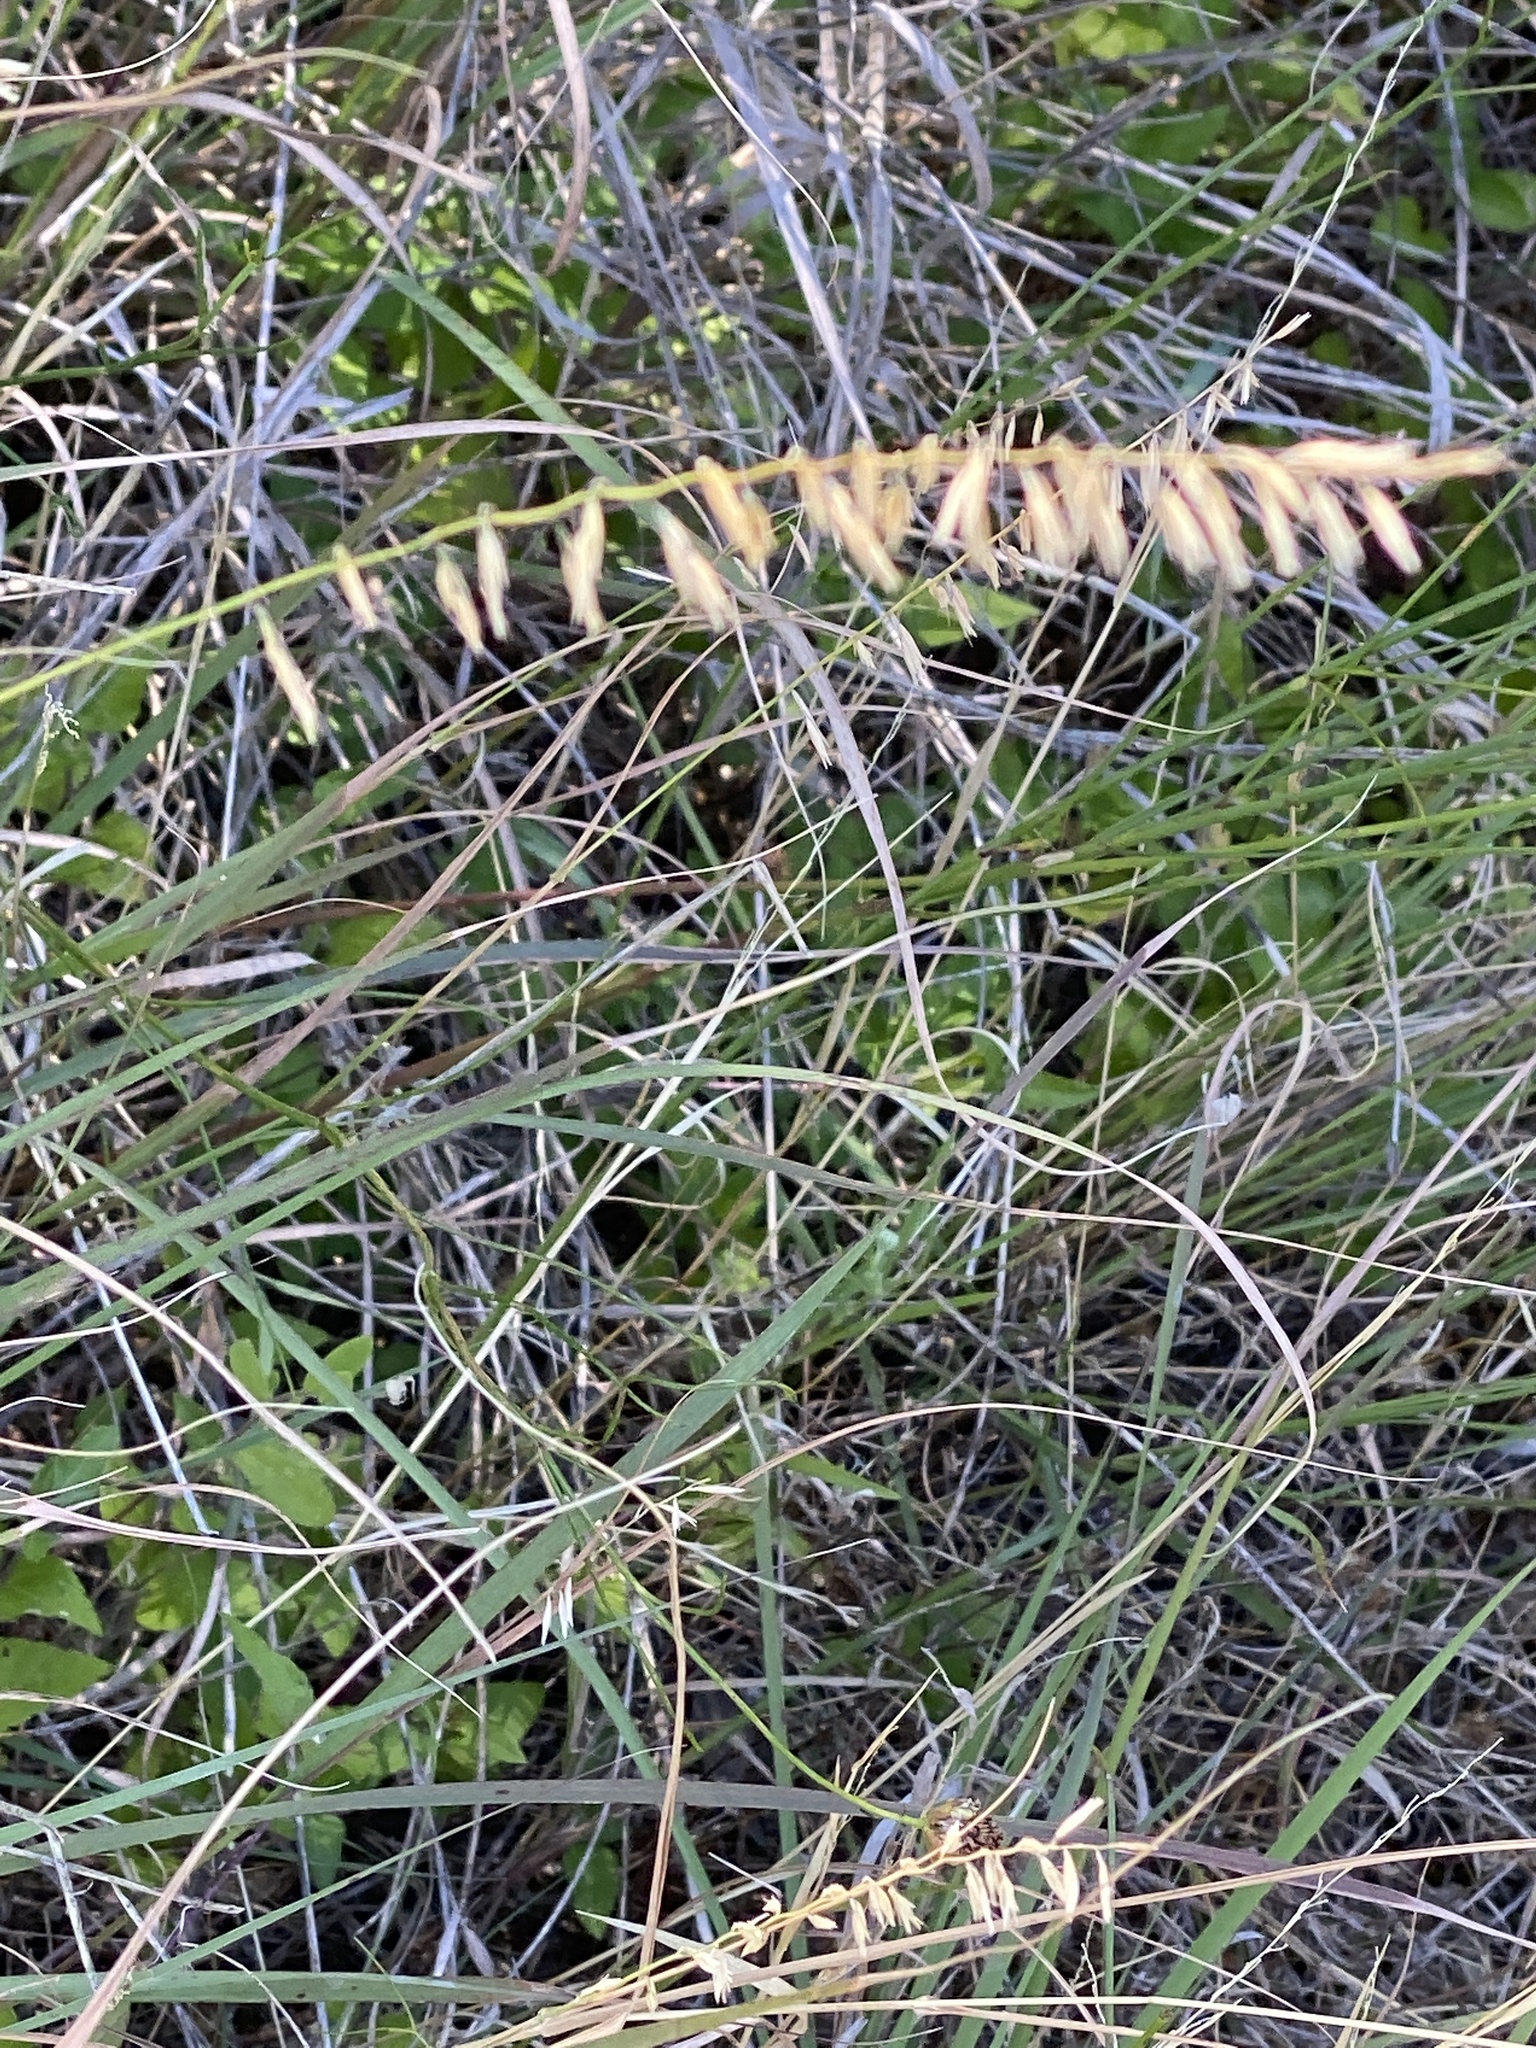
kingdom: Plantae
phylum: Tracheophyta
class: Liliopsida
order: Poales
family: Poaceae
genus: Bouteloua
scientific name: Bouteloua curtipendula
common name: Side-oats grama
